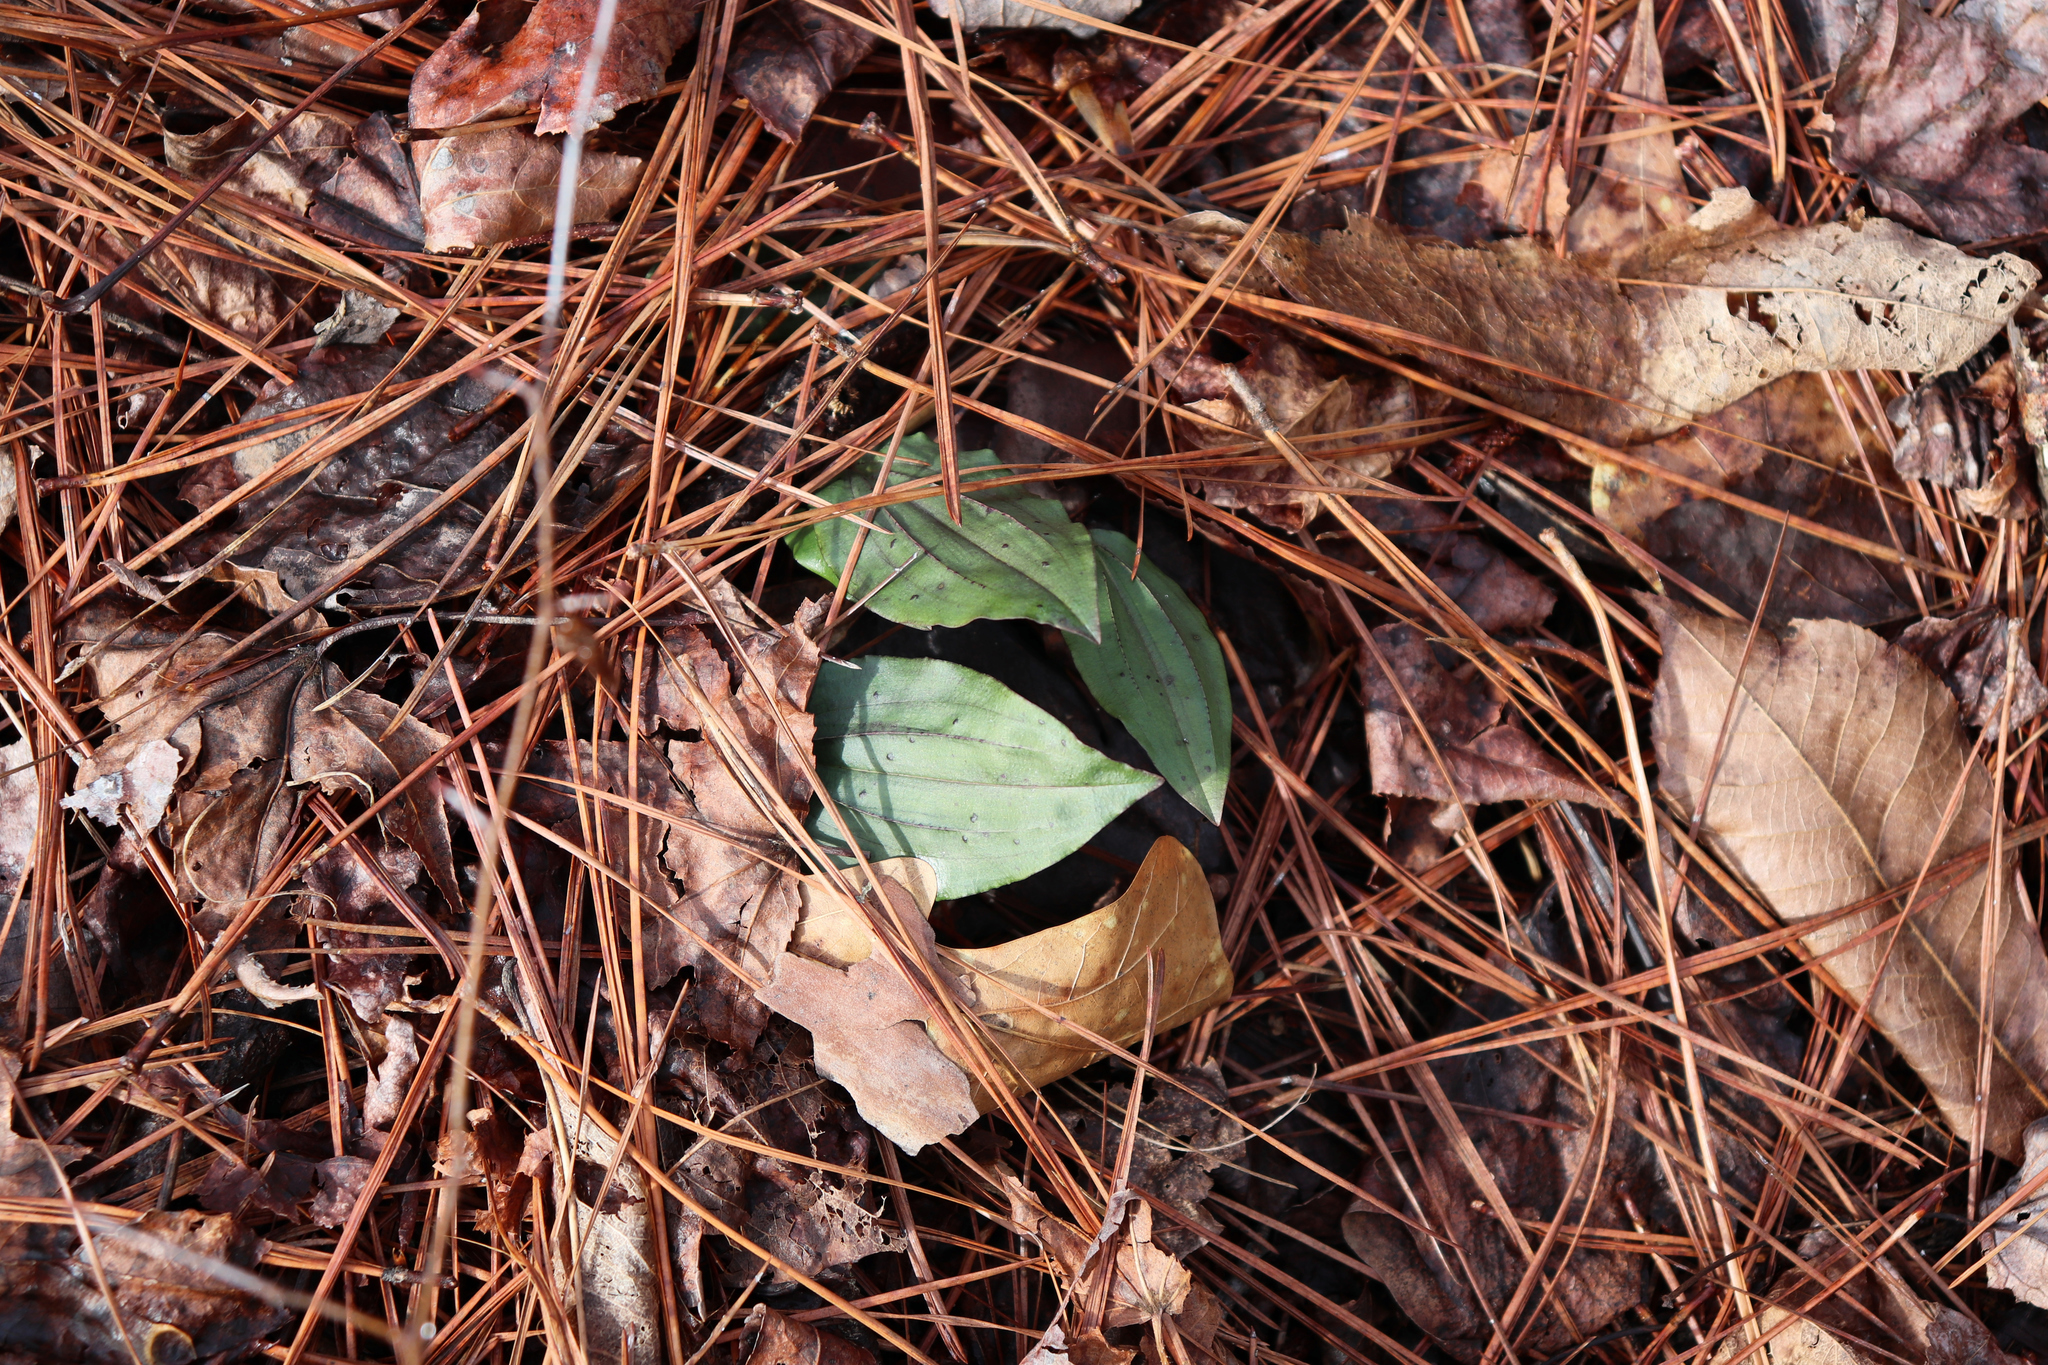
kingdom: Plantae
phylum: Tracheophyta
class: Liliopsida
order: Asparagales
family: Orchidaceae
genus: Tipularia
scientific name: Tipularia discolor
